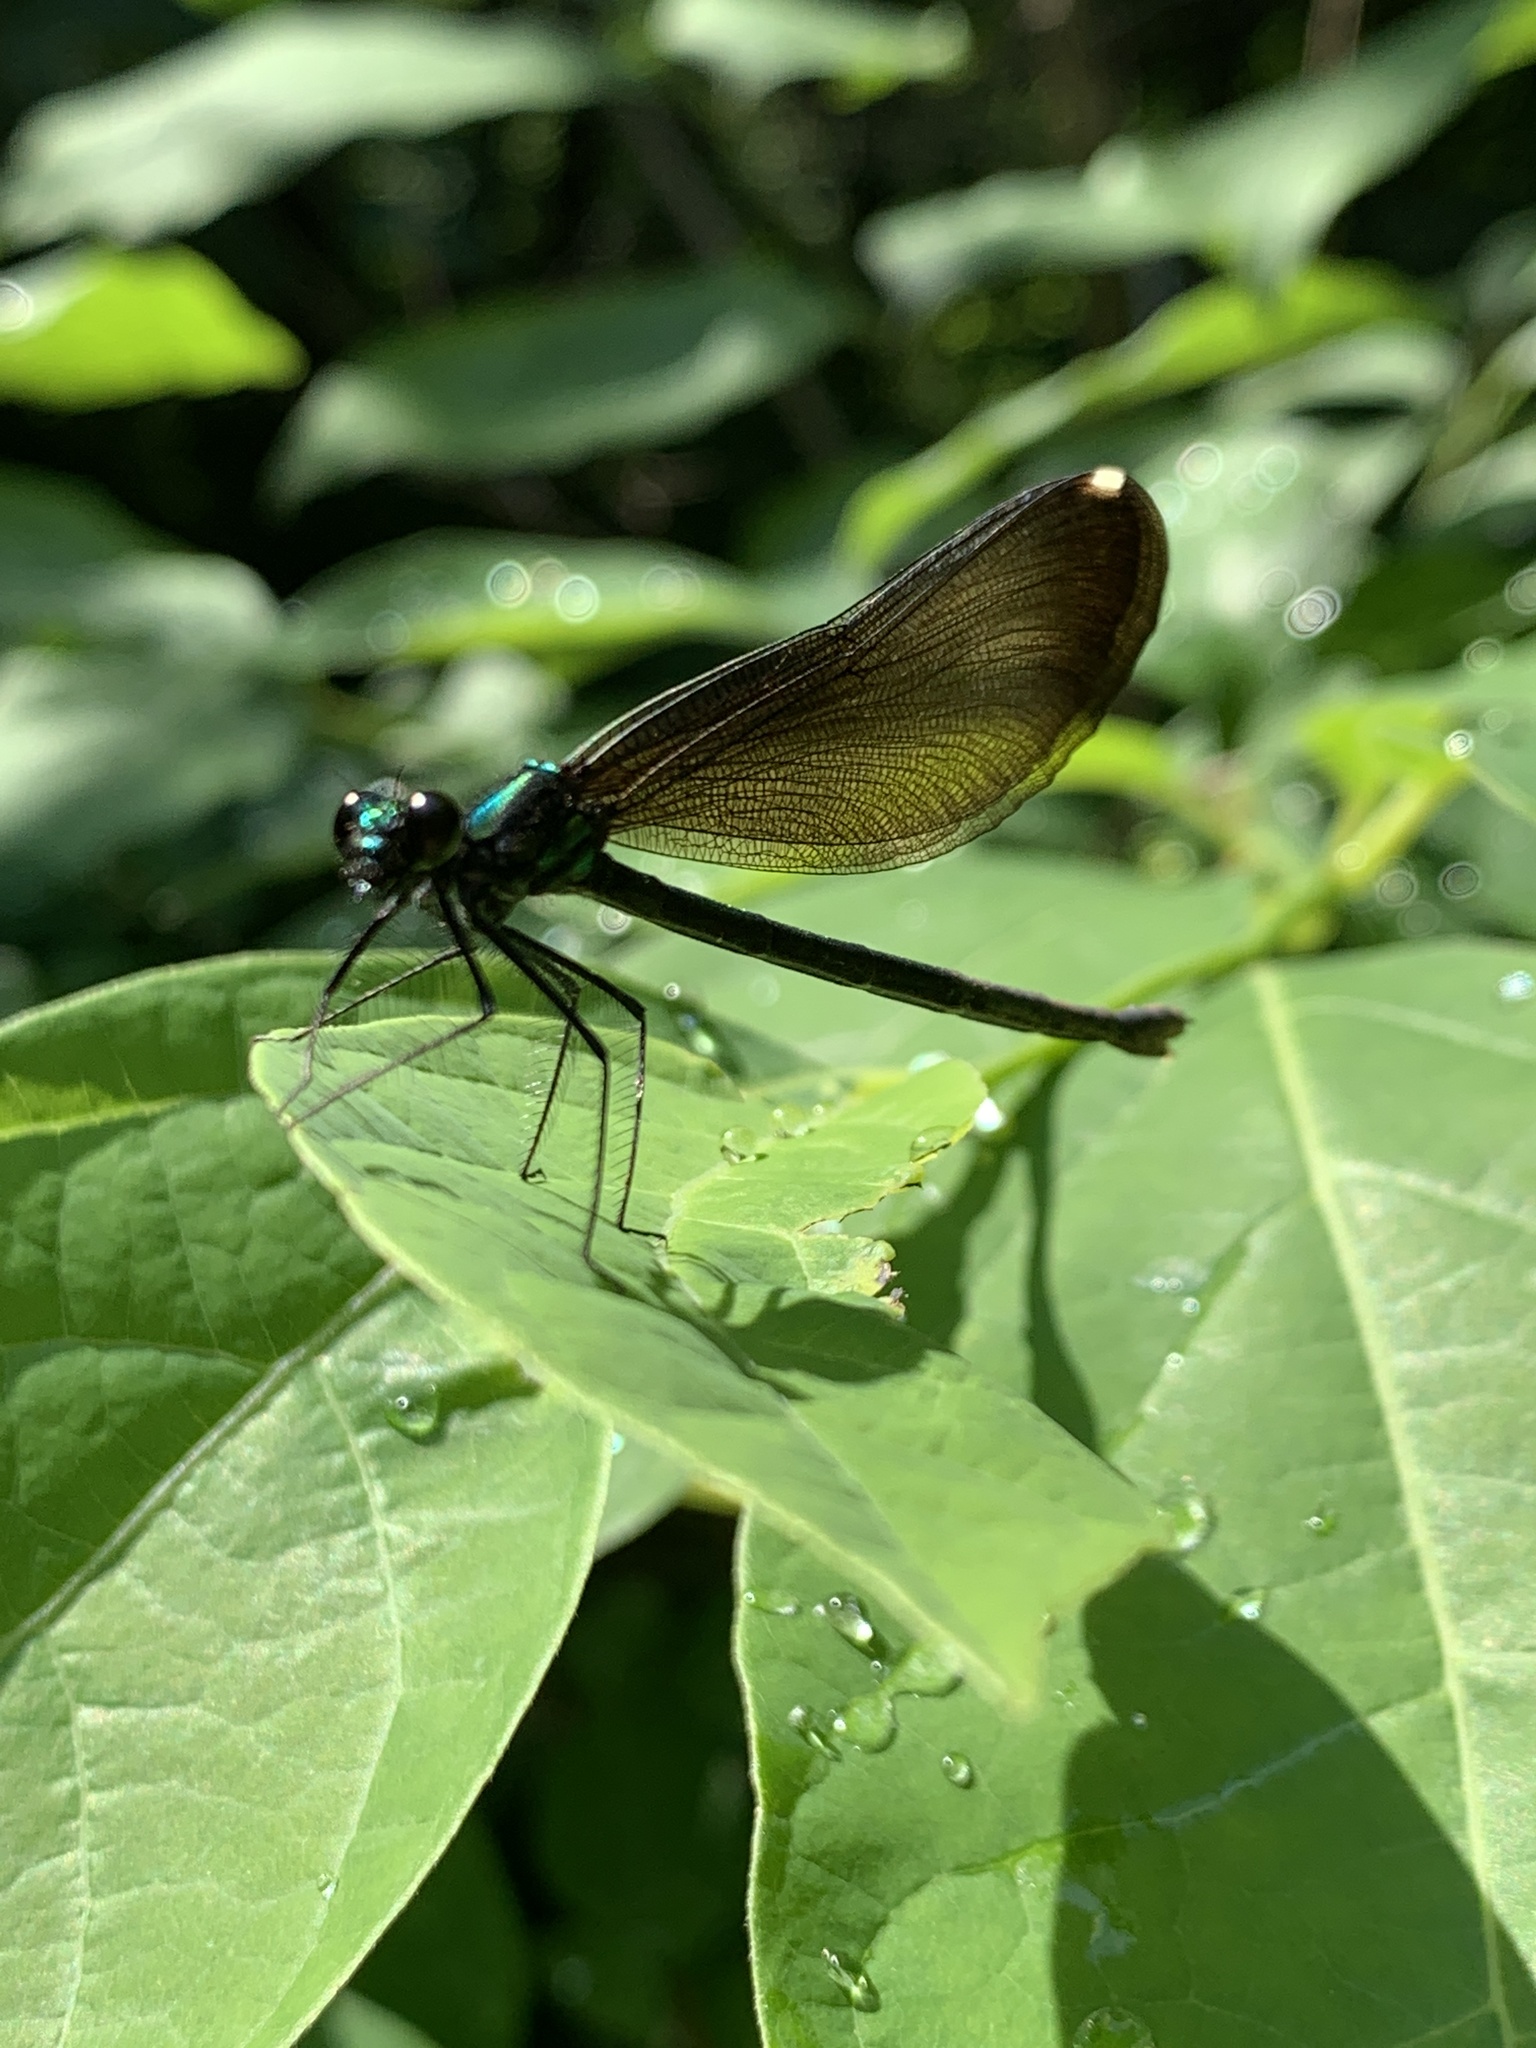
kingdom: Animalia
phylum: Arthropoda
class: Insecta
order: Odonata
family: Calopterygidae
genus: Calopteryx
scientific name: Calopteryx maculata
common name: Ebony jewelwing
